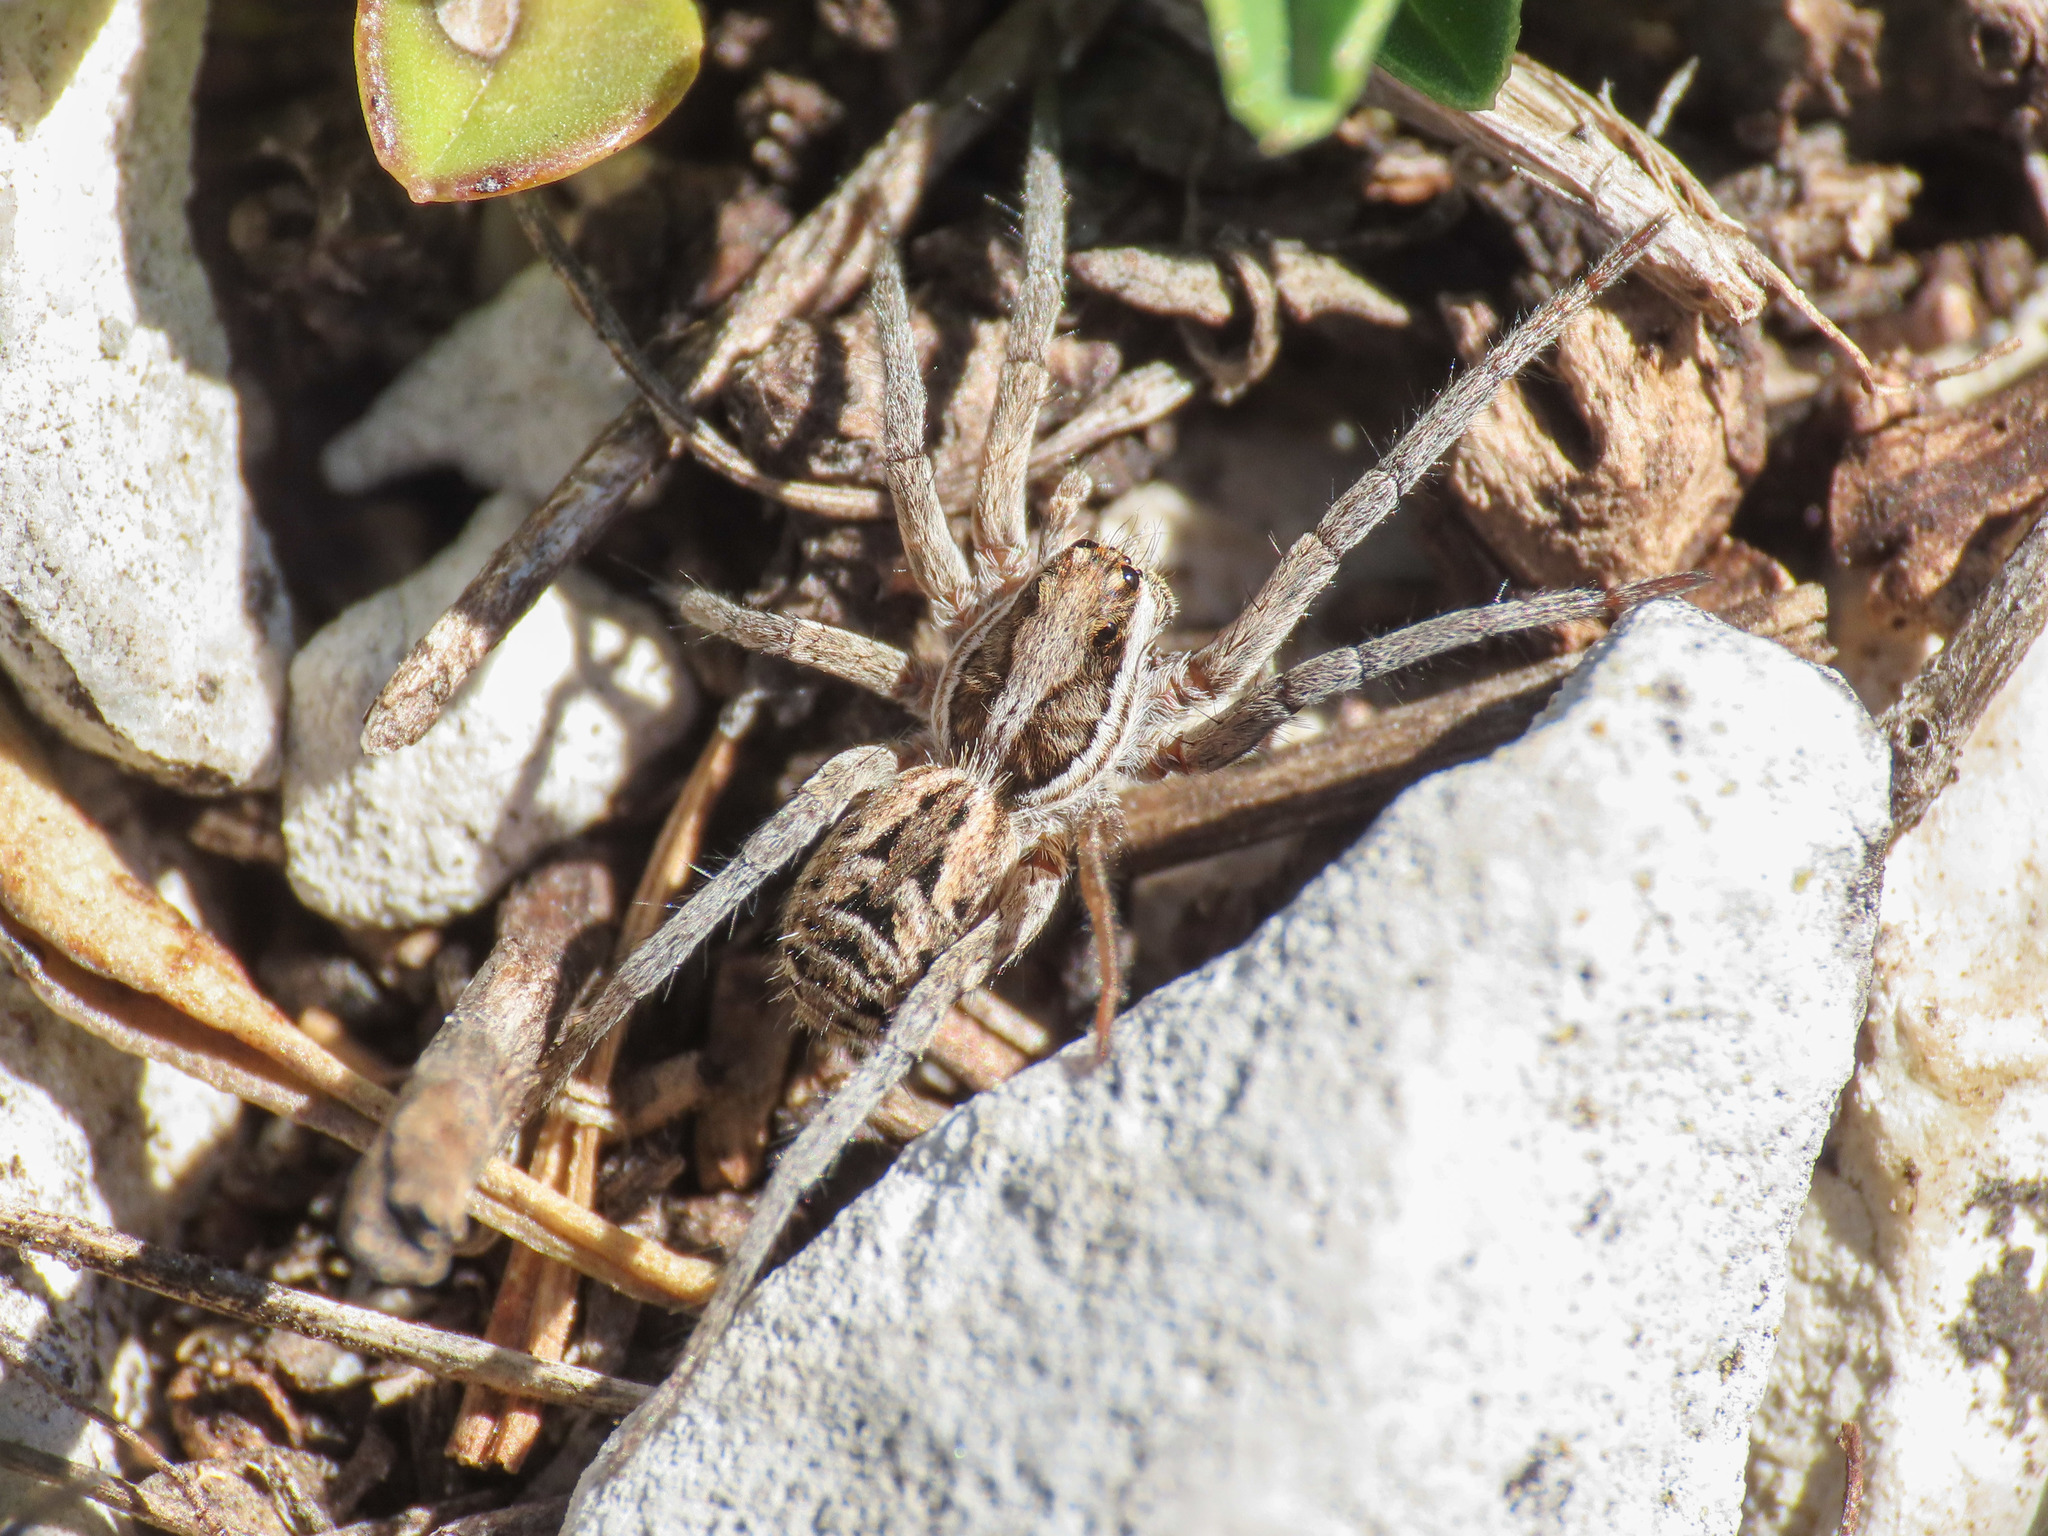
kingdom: Animalia
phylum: Arthropoda
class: Arachnida
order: Araneae
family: Lycosidae
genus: Hogna
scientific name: Hogna radiata
